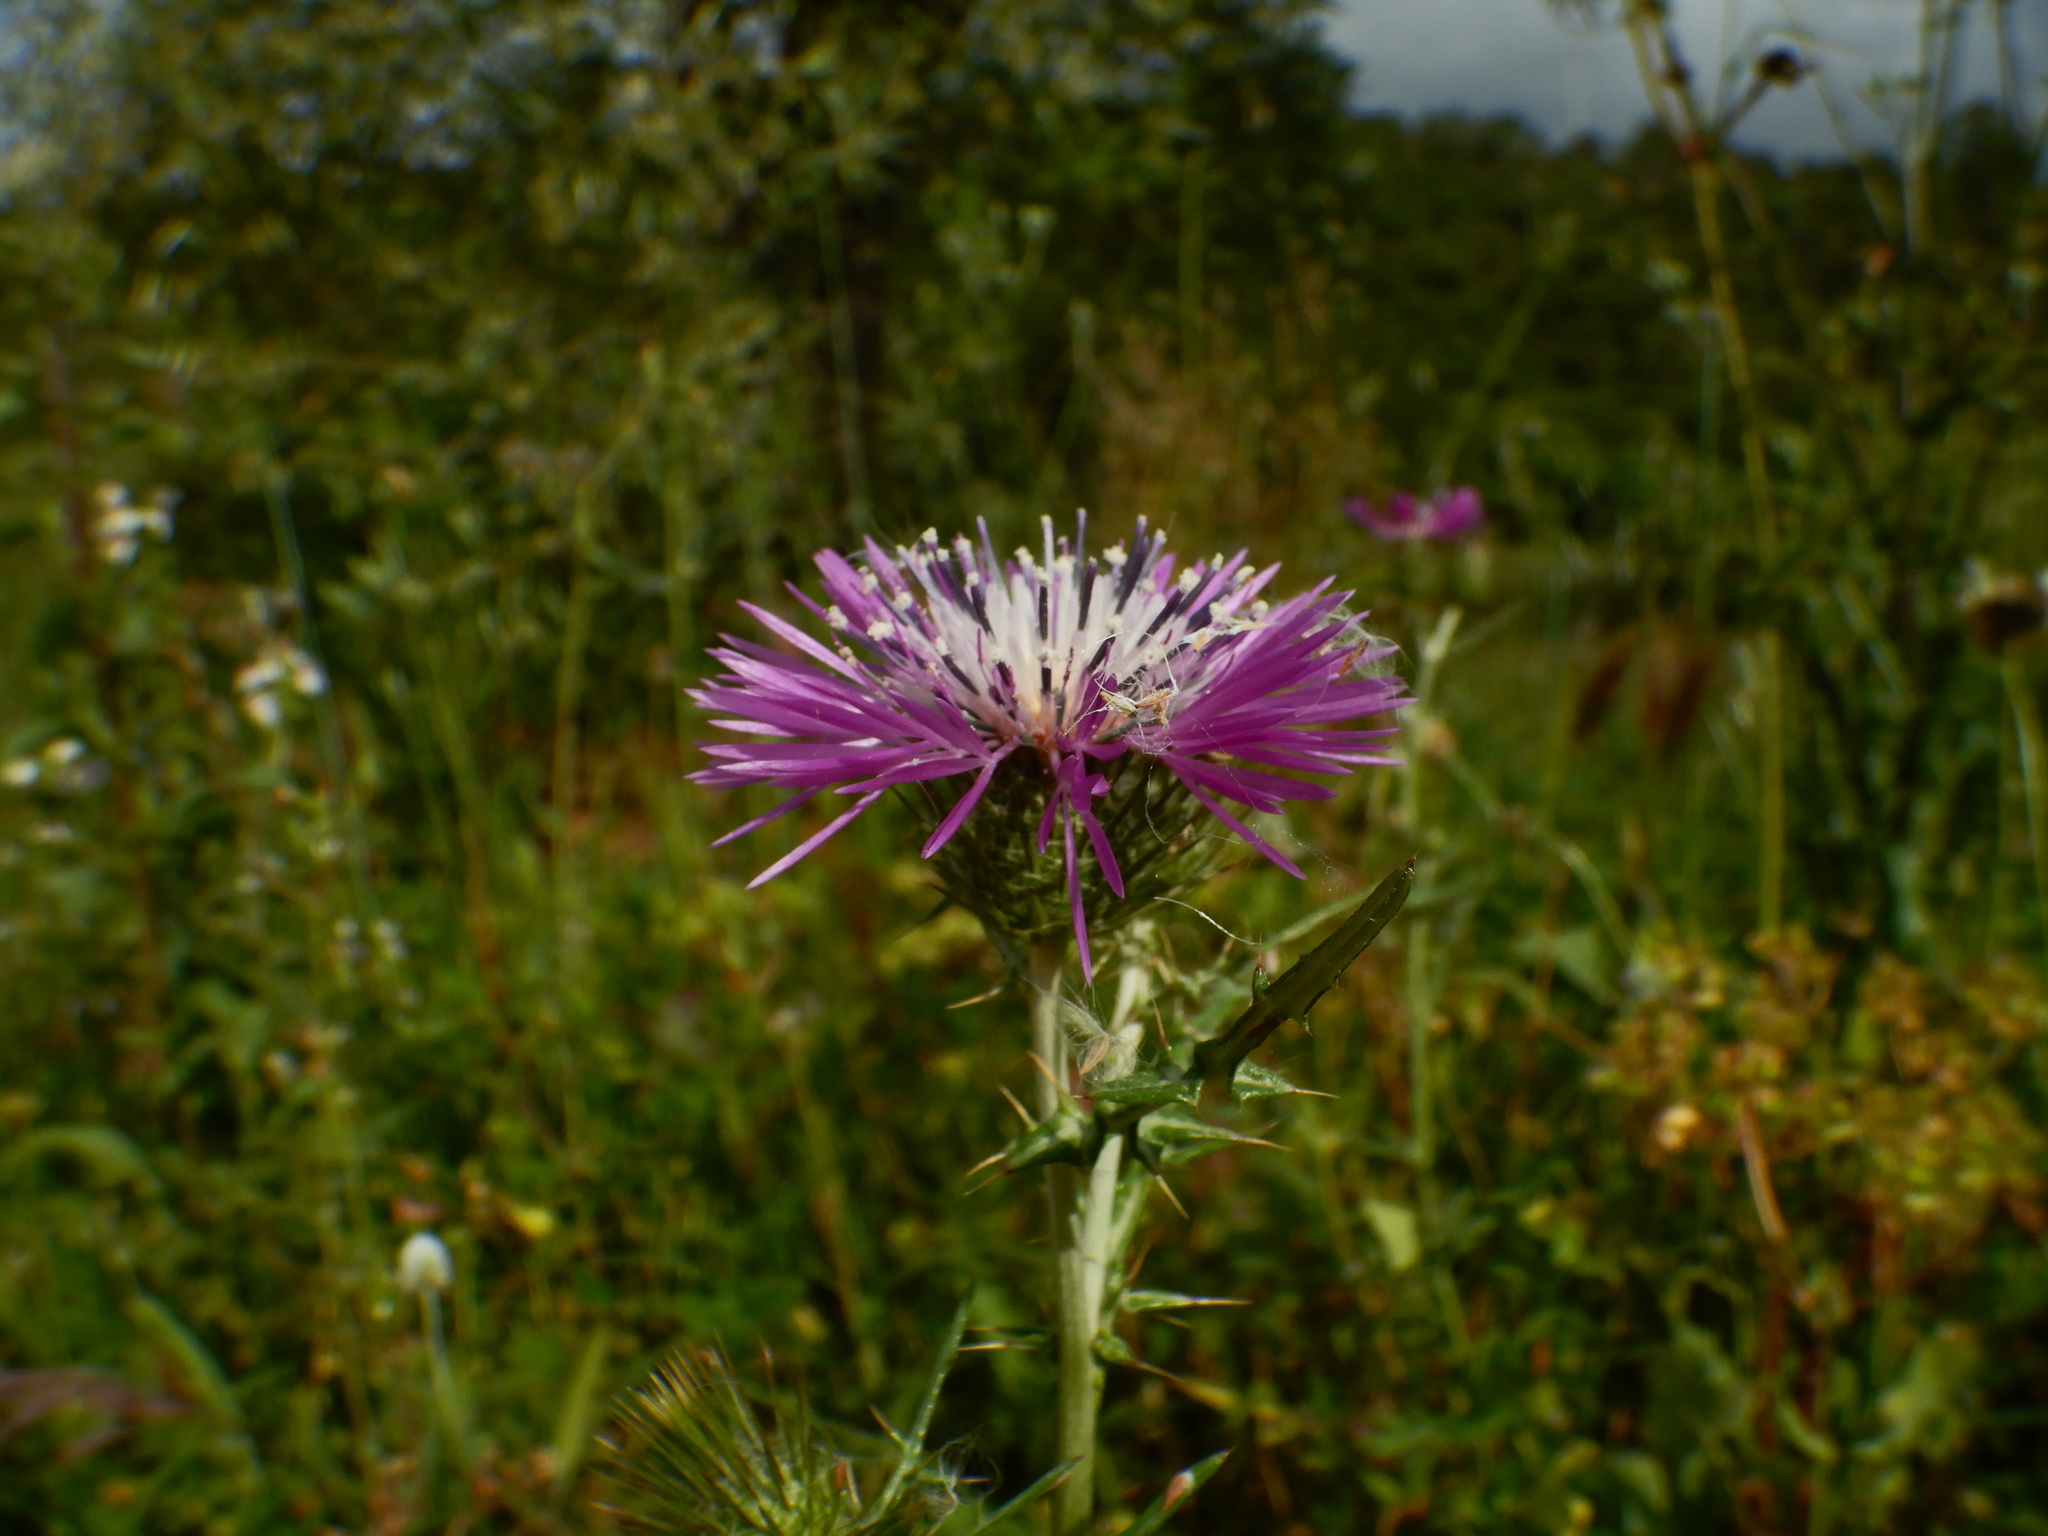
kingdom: Plantae
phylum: Tracheophyta
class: Magnoliopsida
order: Asterales
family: Asteraceae
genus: Galactites
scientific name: Galactites tomentosa
